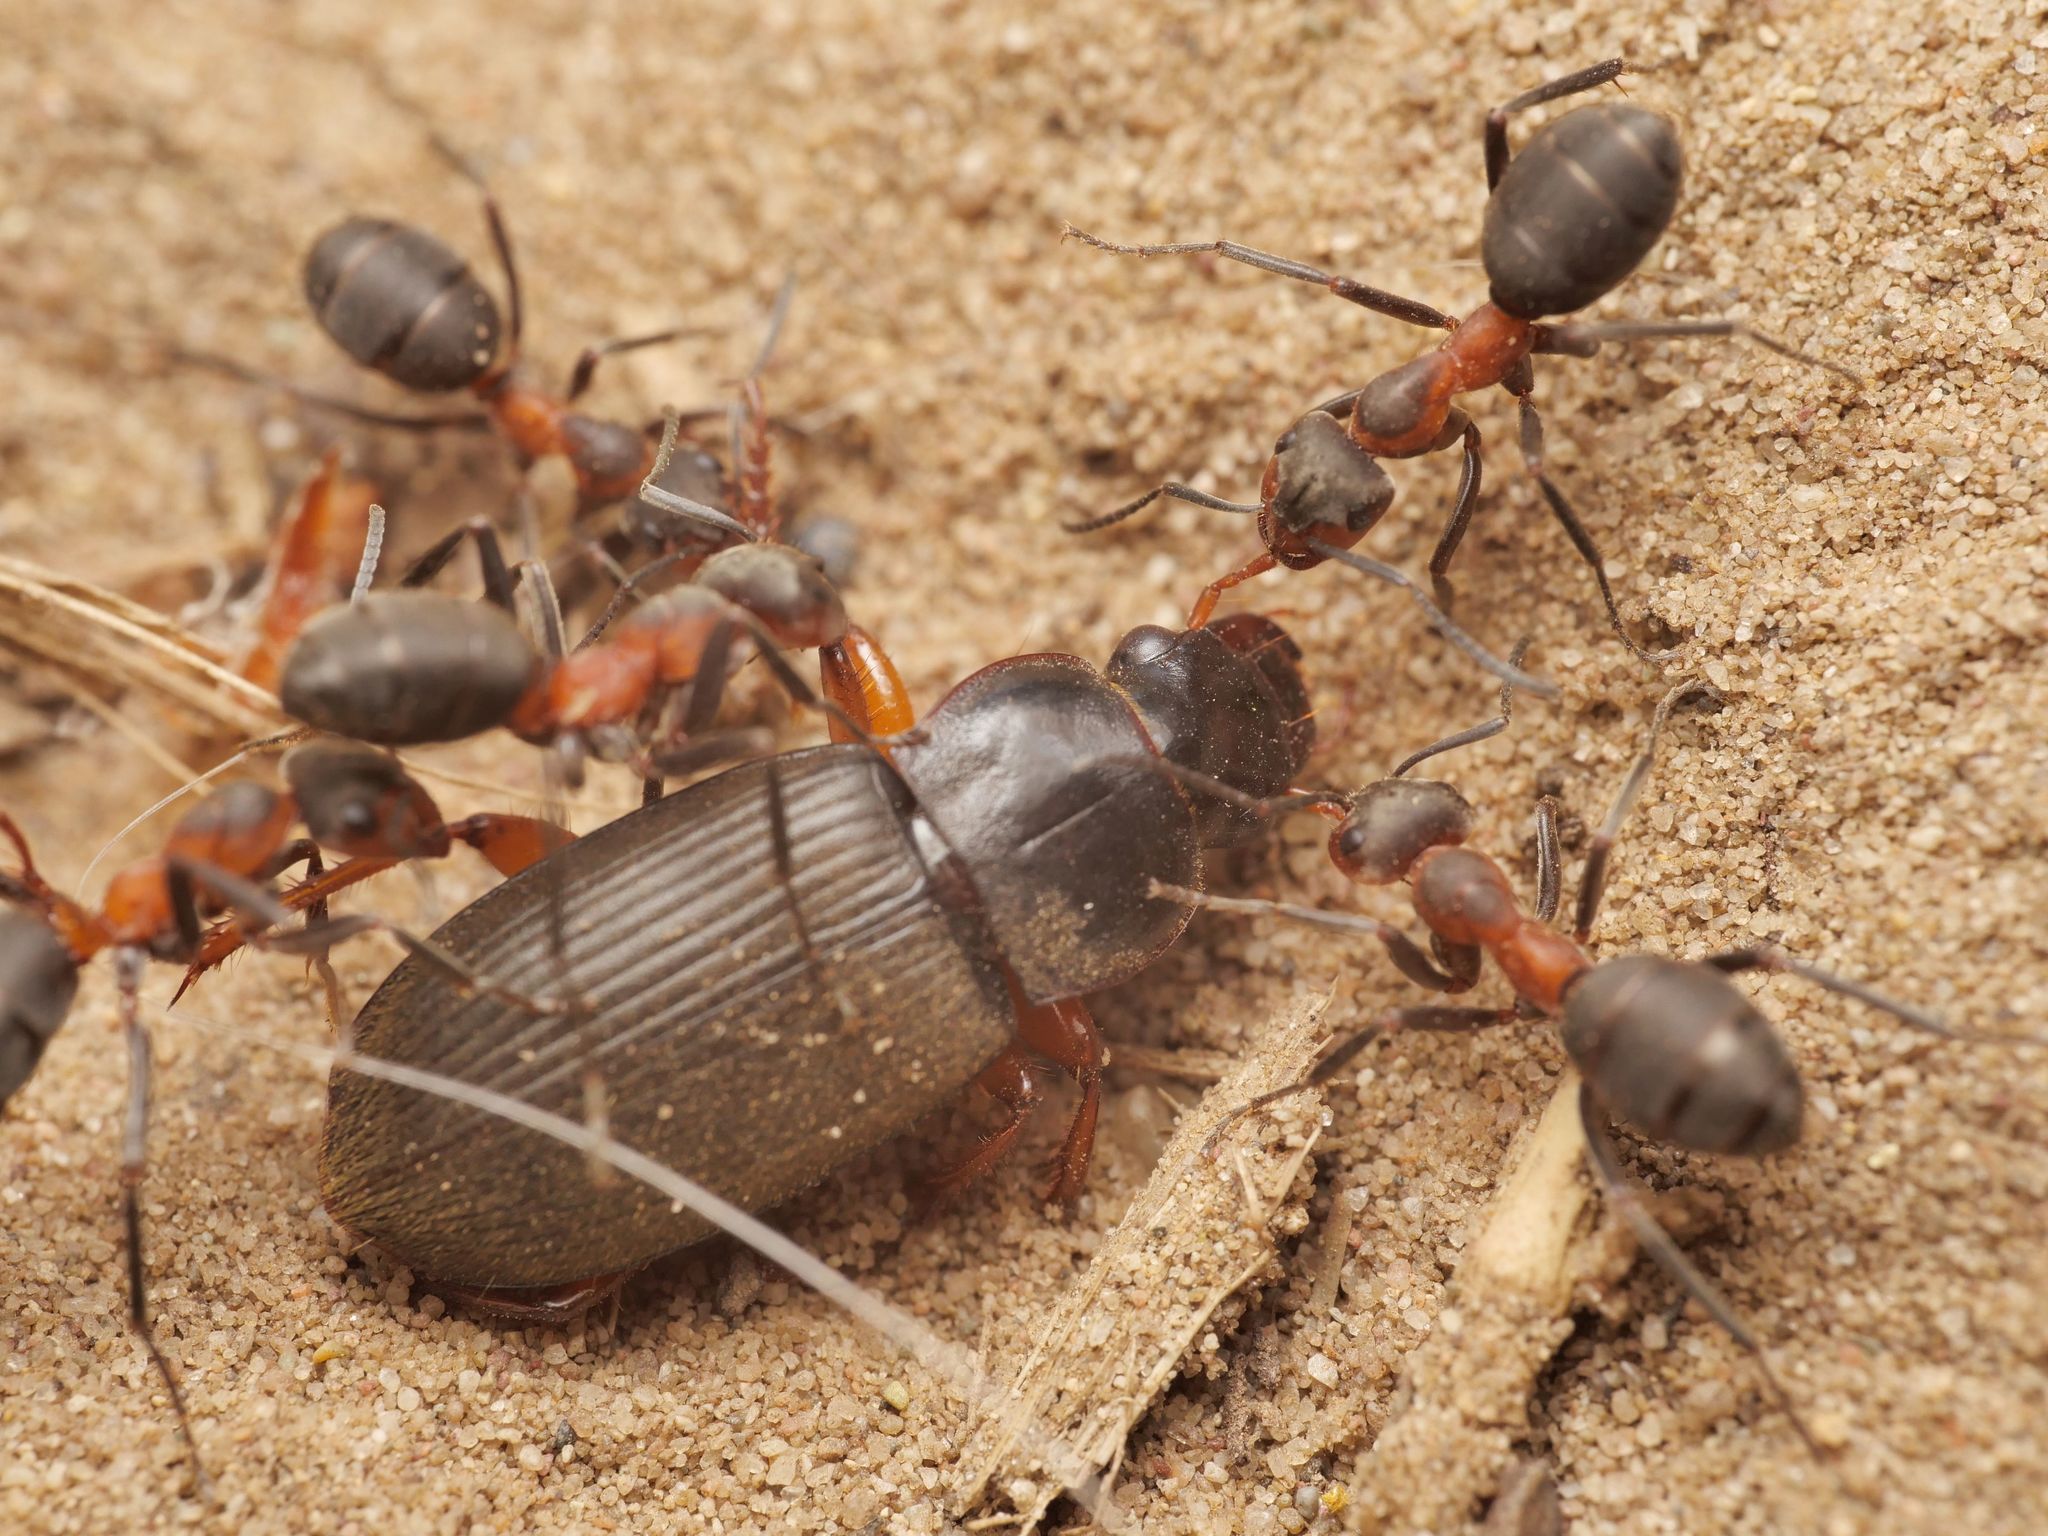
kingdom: Animalia
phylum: Arthropoda
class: Insecta
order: Coleoptera
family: Carabidae
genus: Harpalus
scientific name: Harpalus rufipes
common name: Strawberry harp ground beetle
